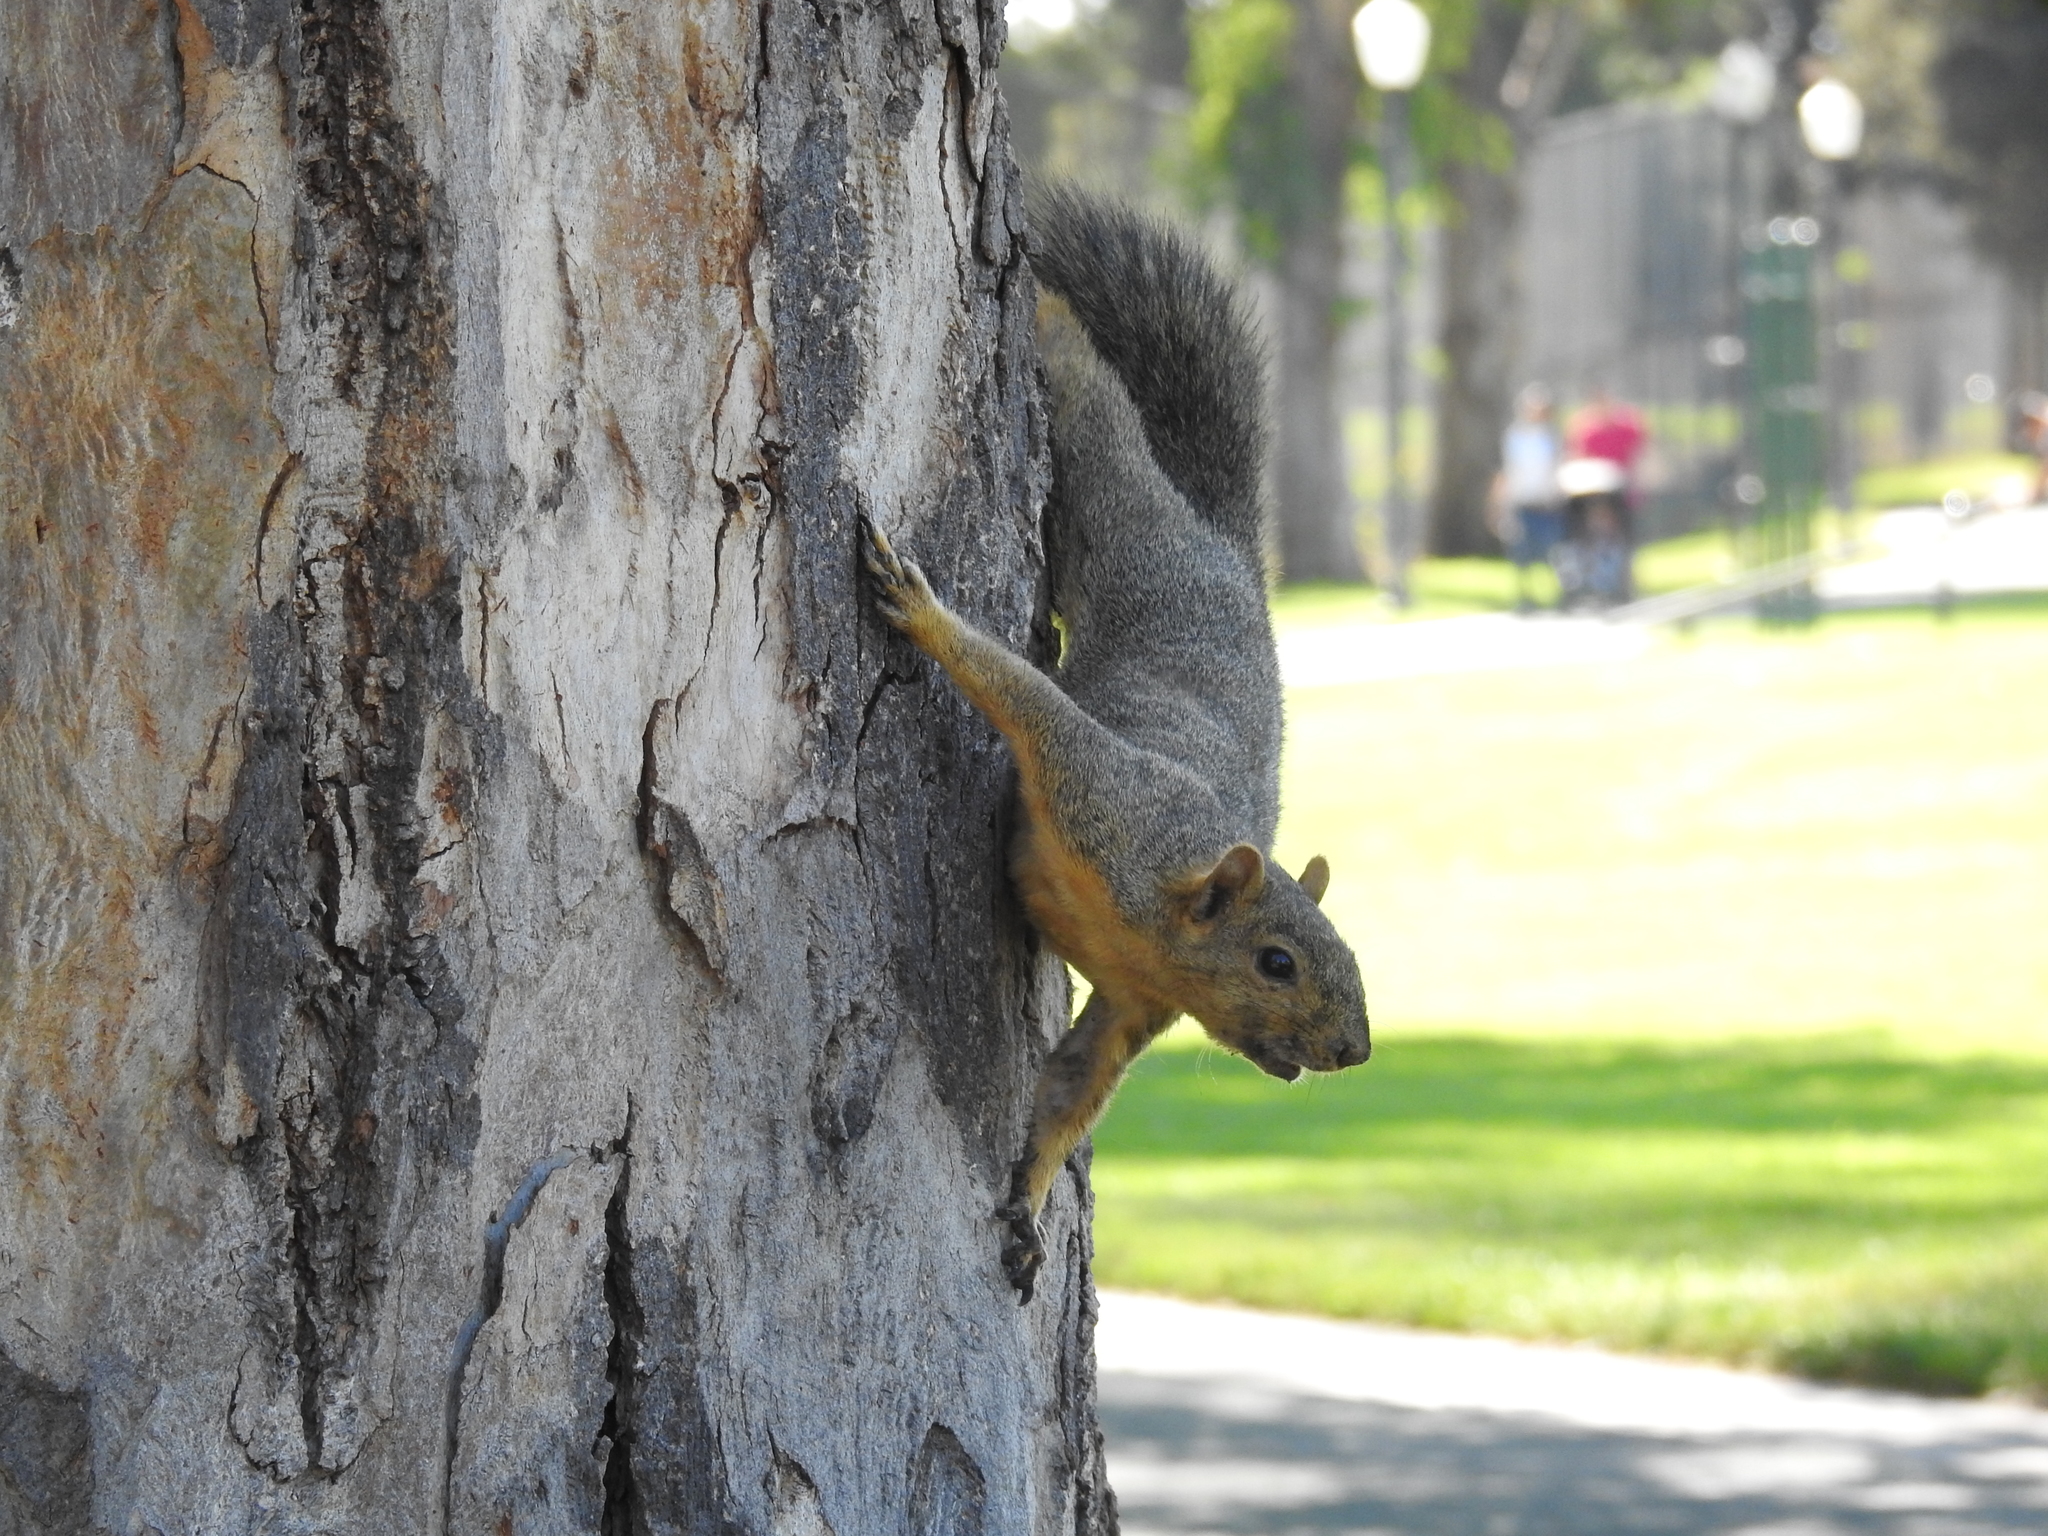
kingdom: Animalia
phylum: Chordata
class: Mammalia
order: Rodentia
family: Sciuridae
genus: Sciurus
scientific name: Sciurus niger
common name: Fox squirrel
